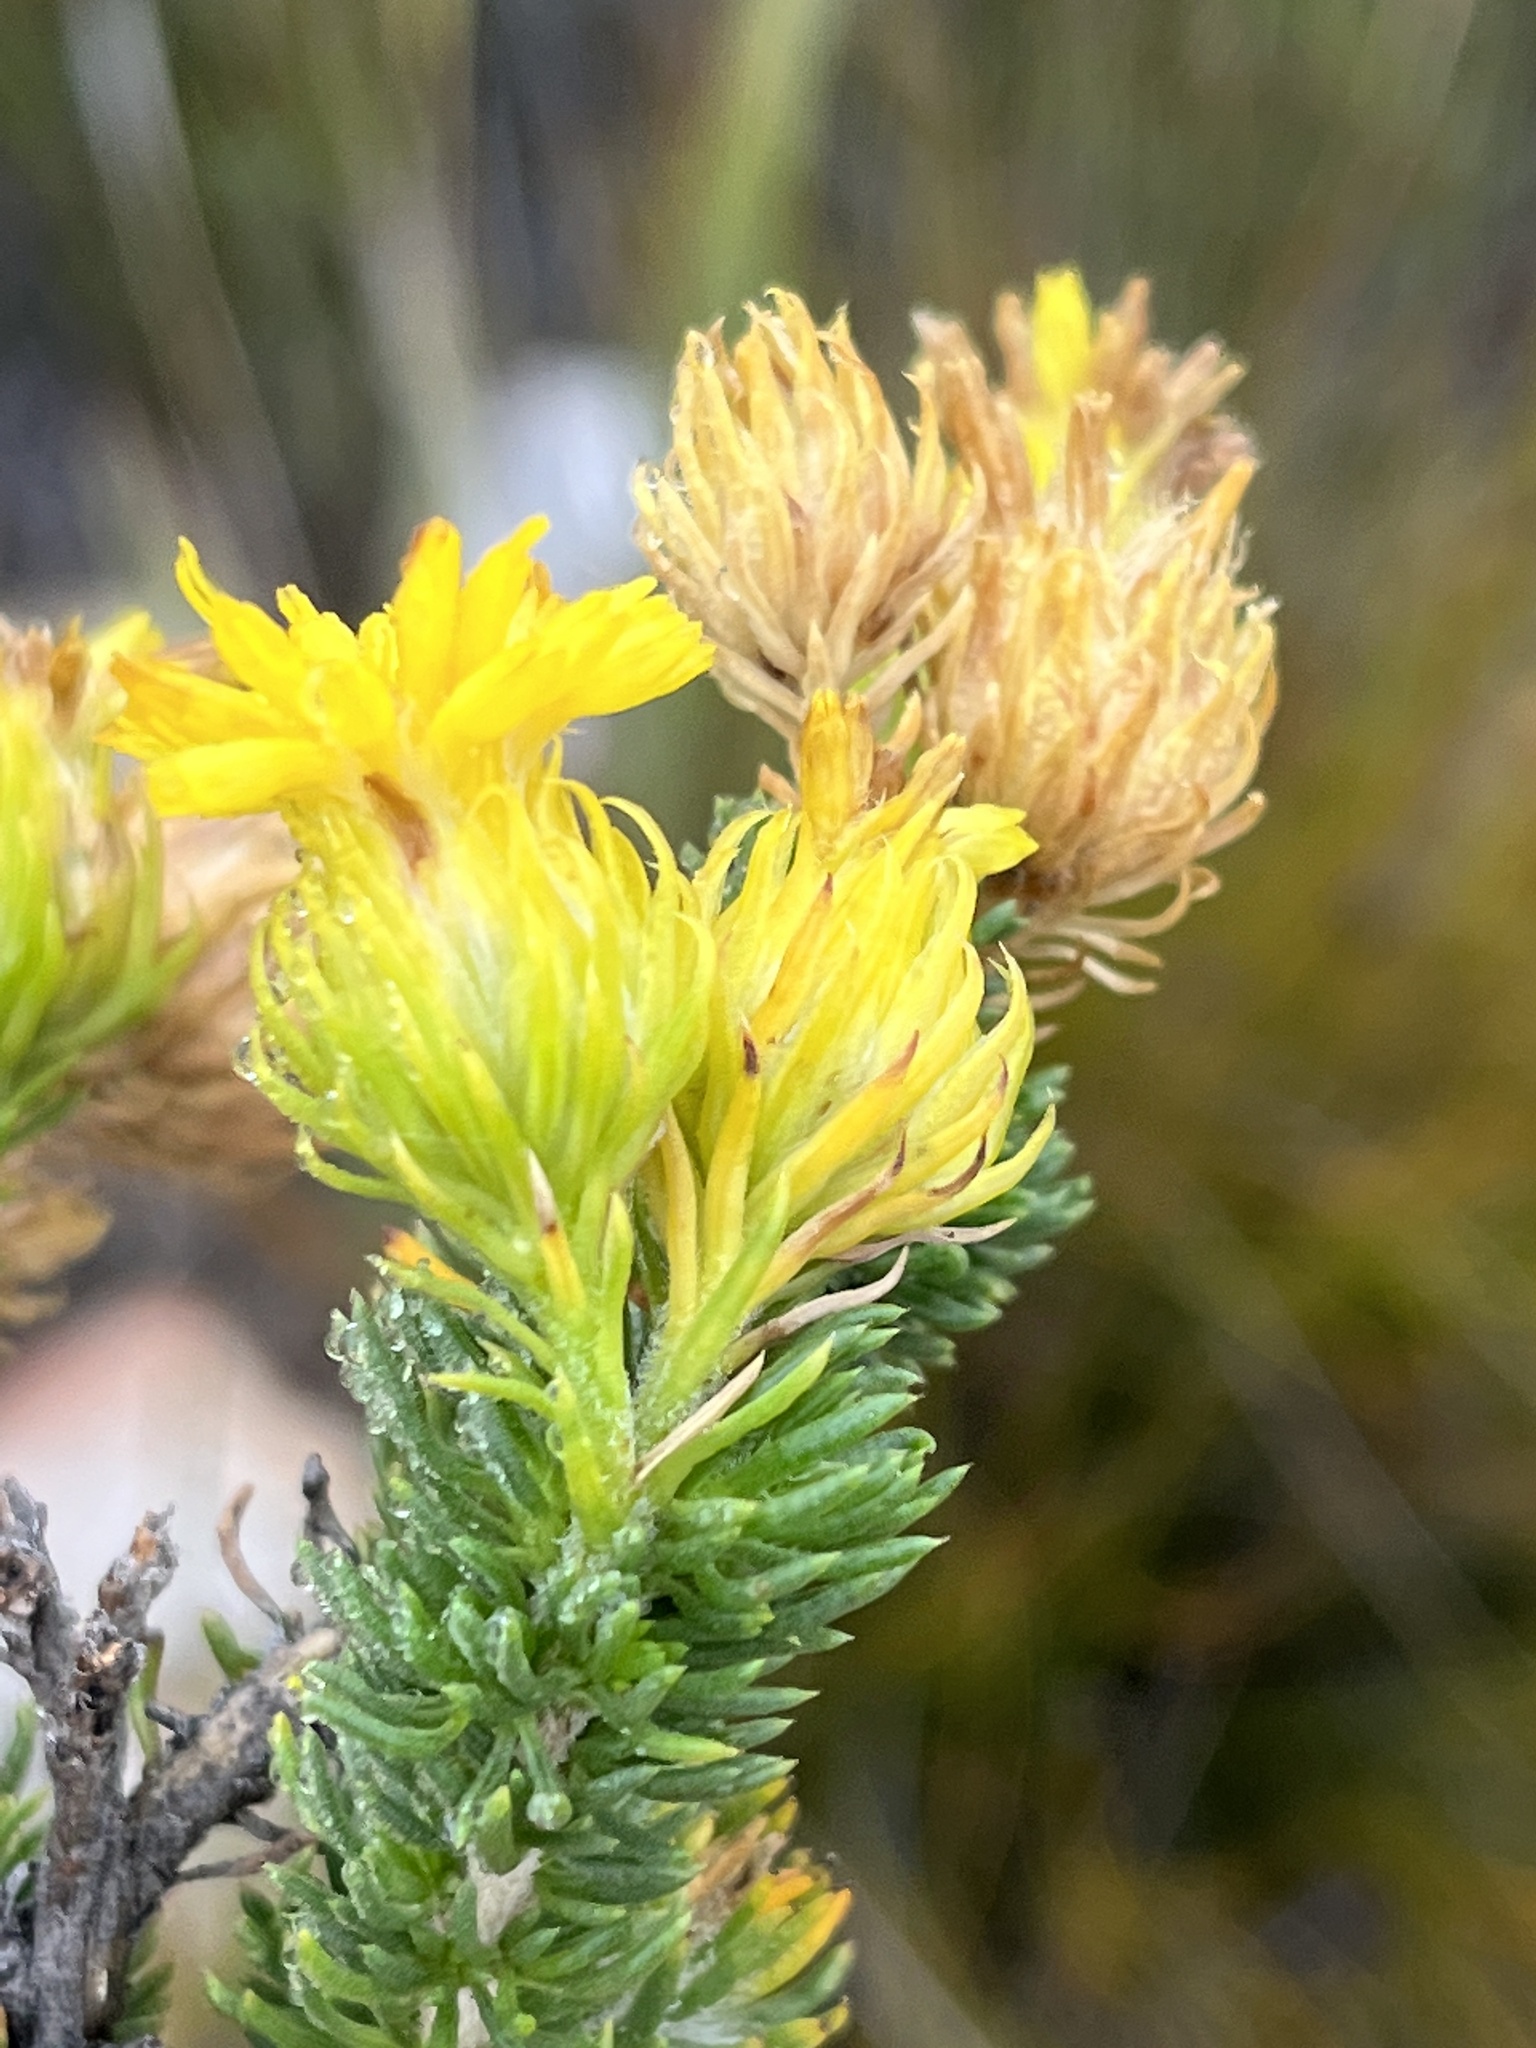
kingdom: Plantae
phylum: Tracheophyta
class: Magnoliopsida
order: Asterales
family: Asteraceae
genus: Pteronia
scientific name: Pteronia camphorata
